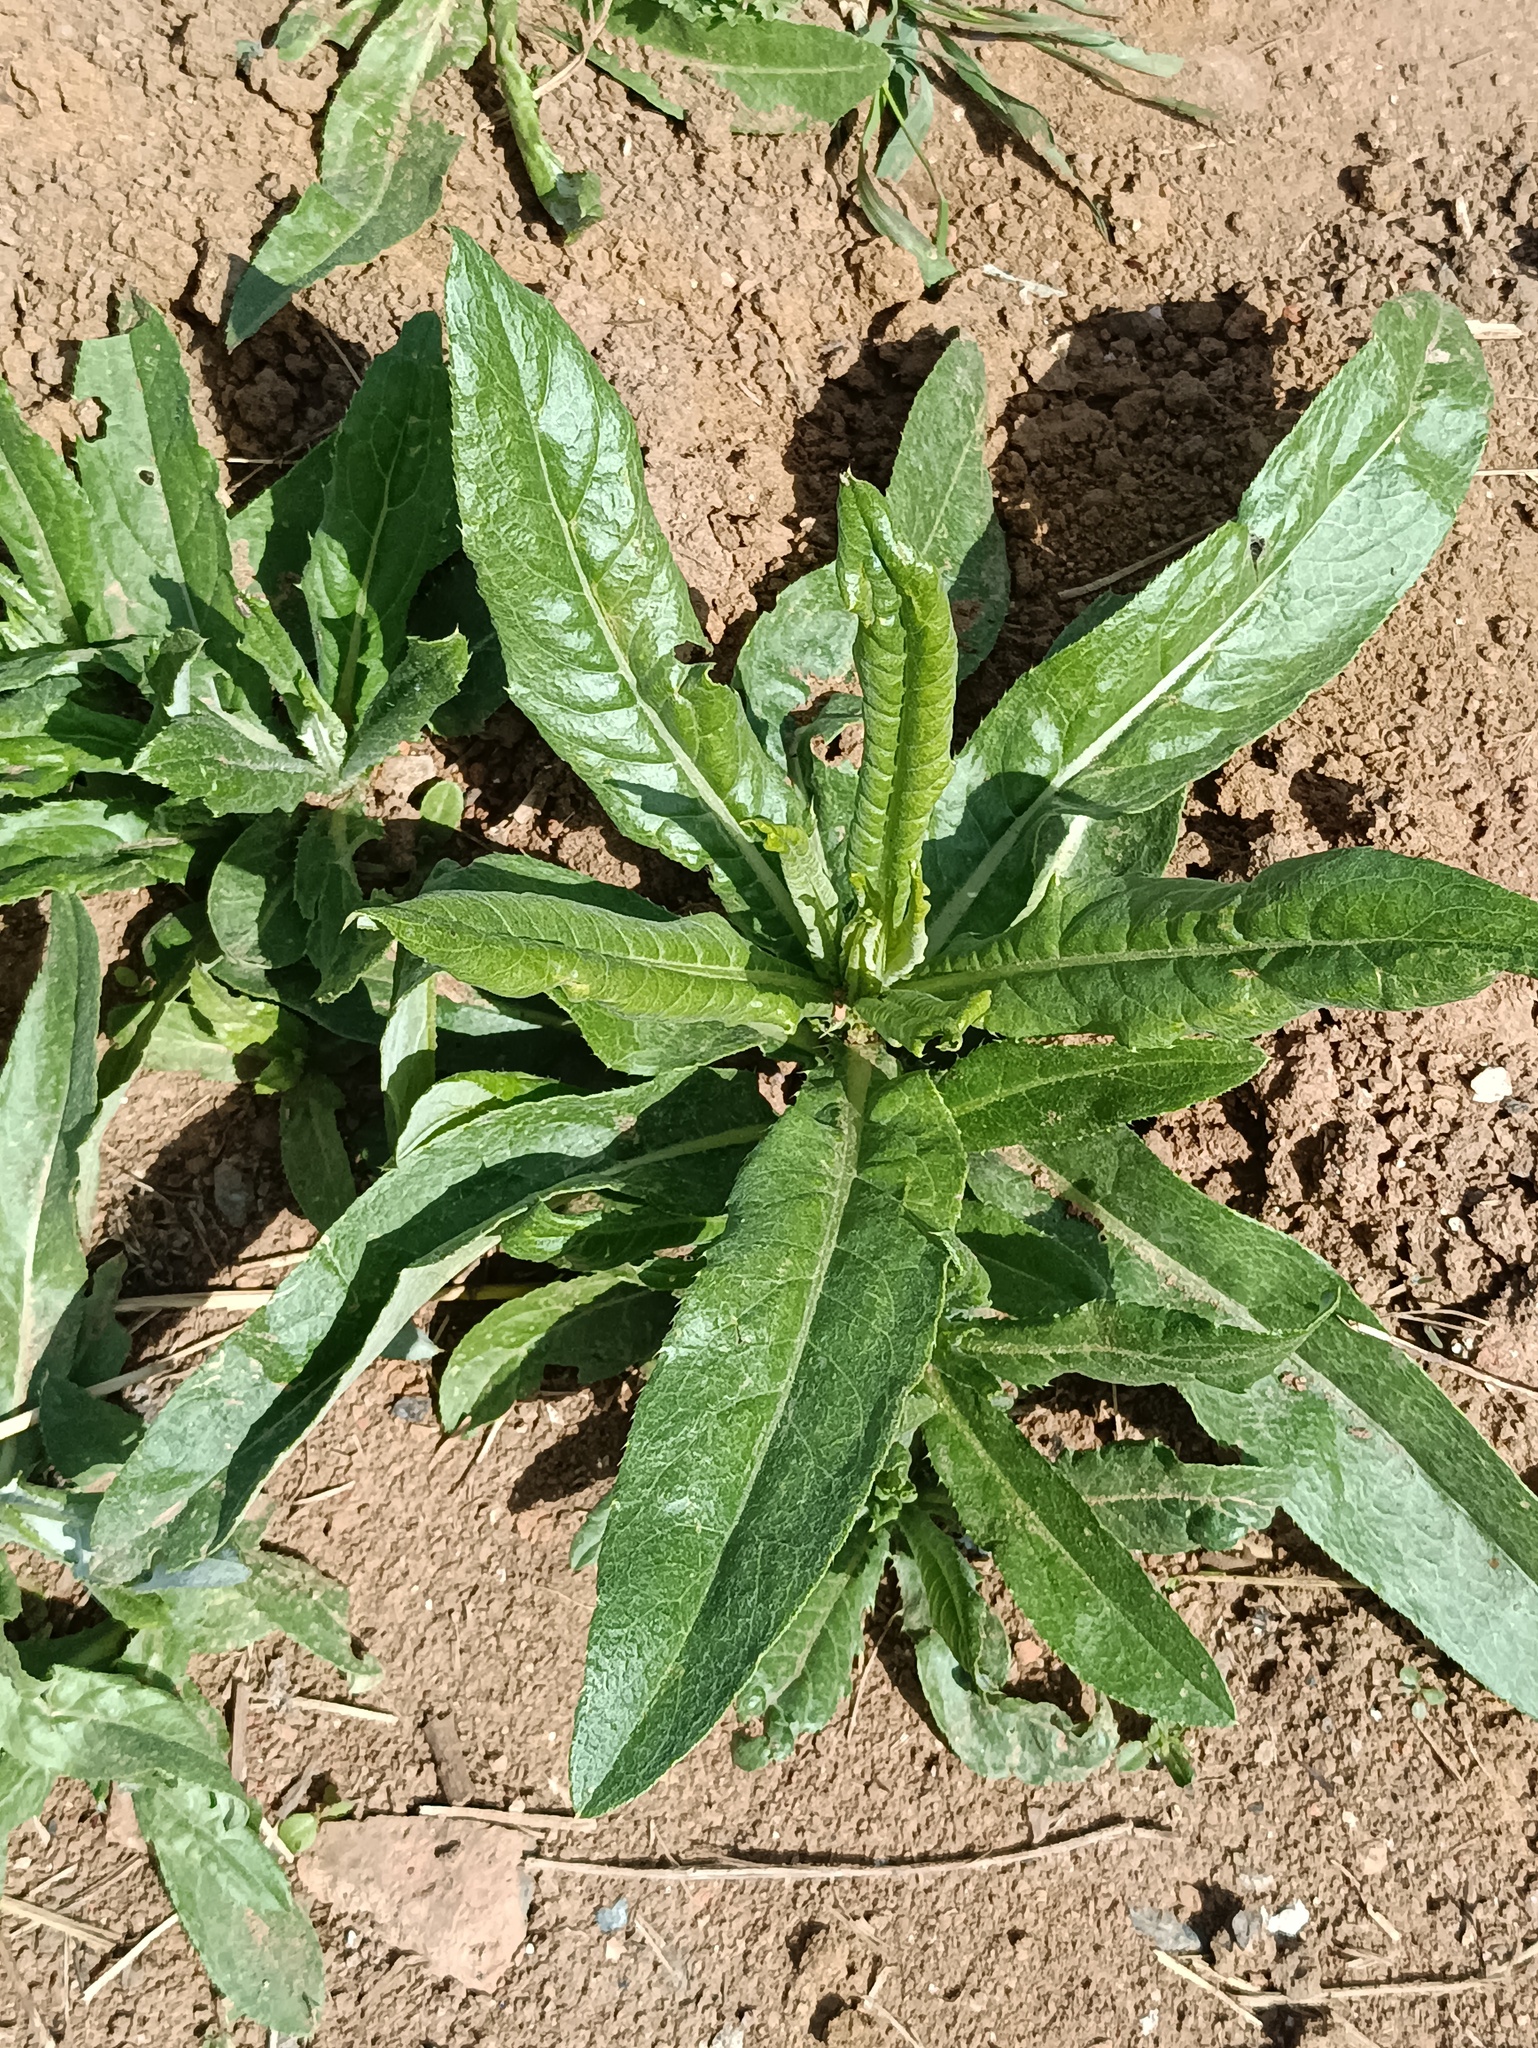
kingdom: Plantae
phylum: Tracheophyta
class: Magnoliopsida
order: Asterales
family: Asteraceae
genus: Cirsium
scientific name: Cirsium arvense
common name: Creeping thistle
